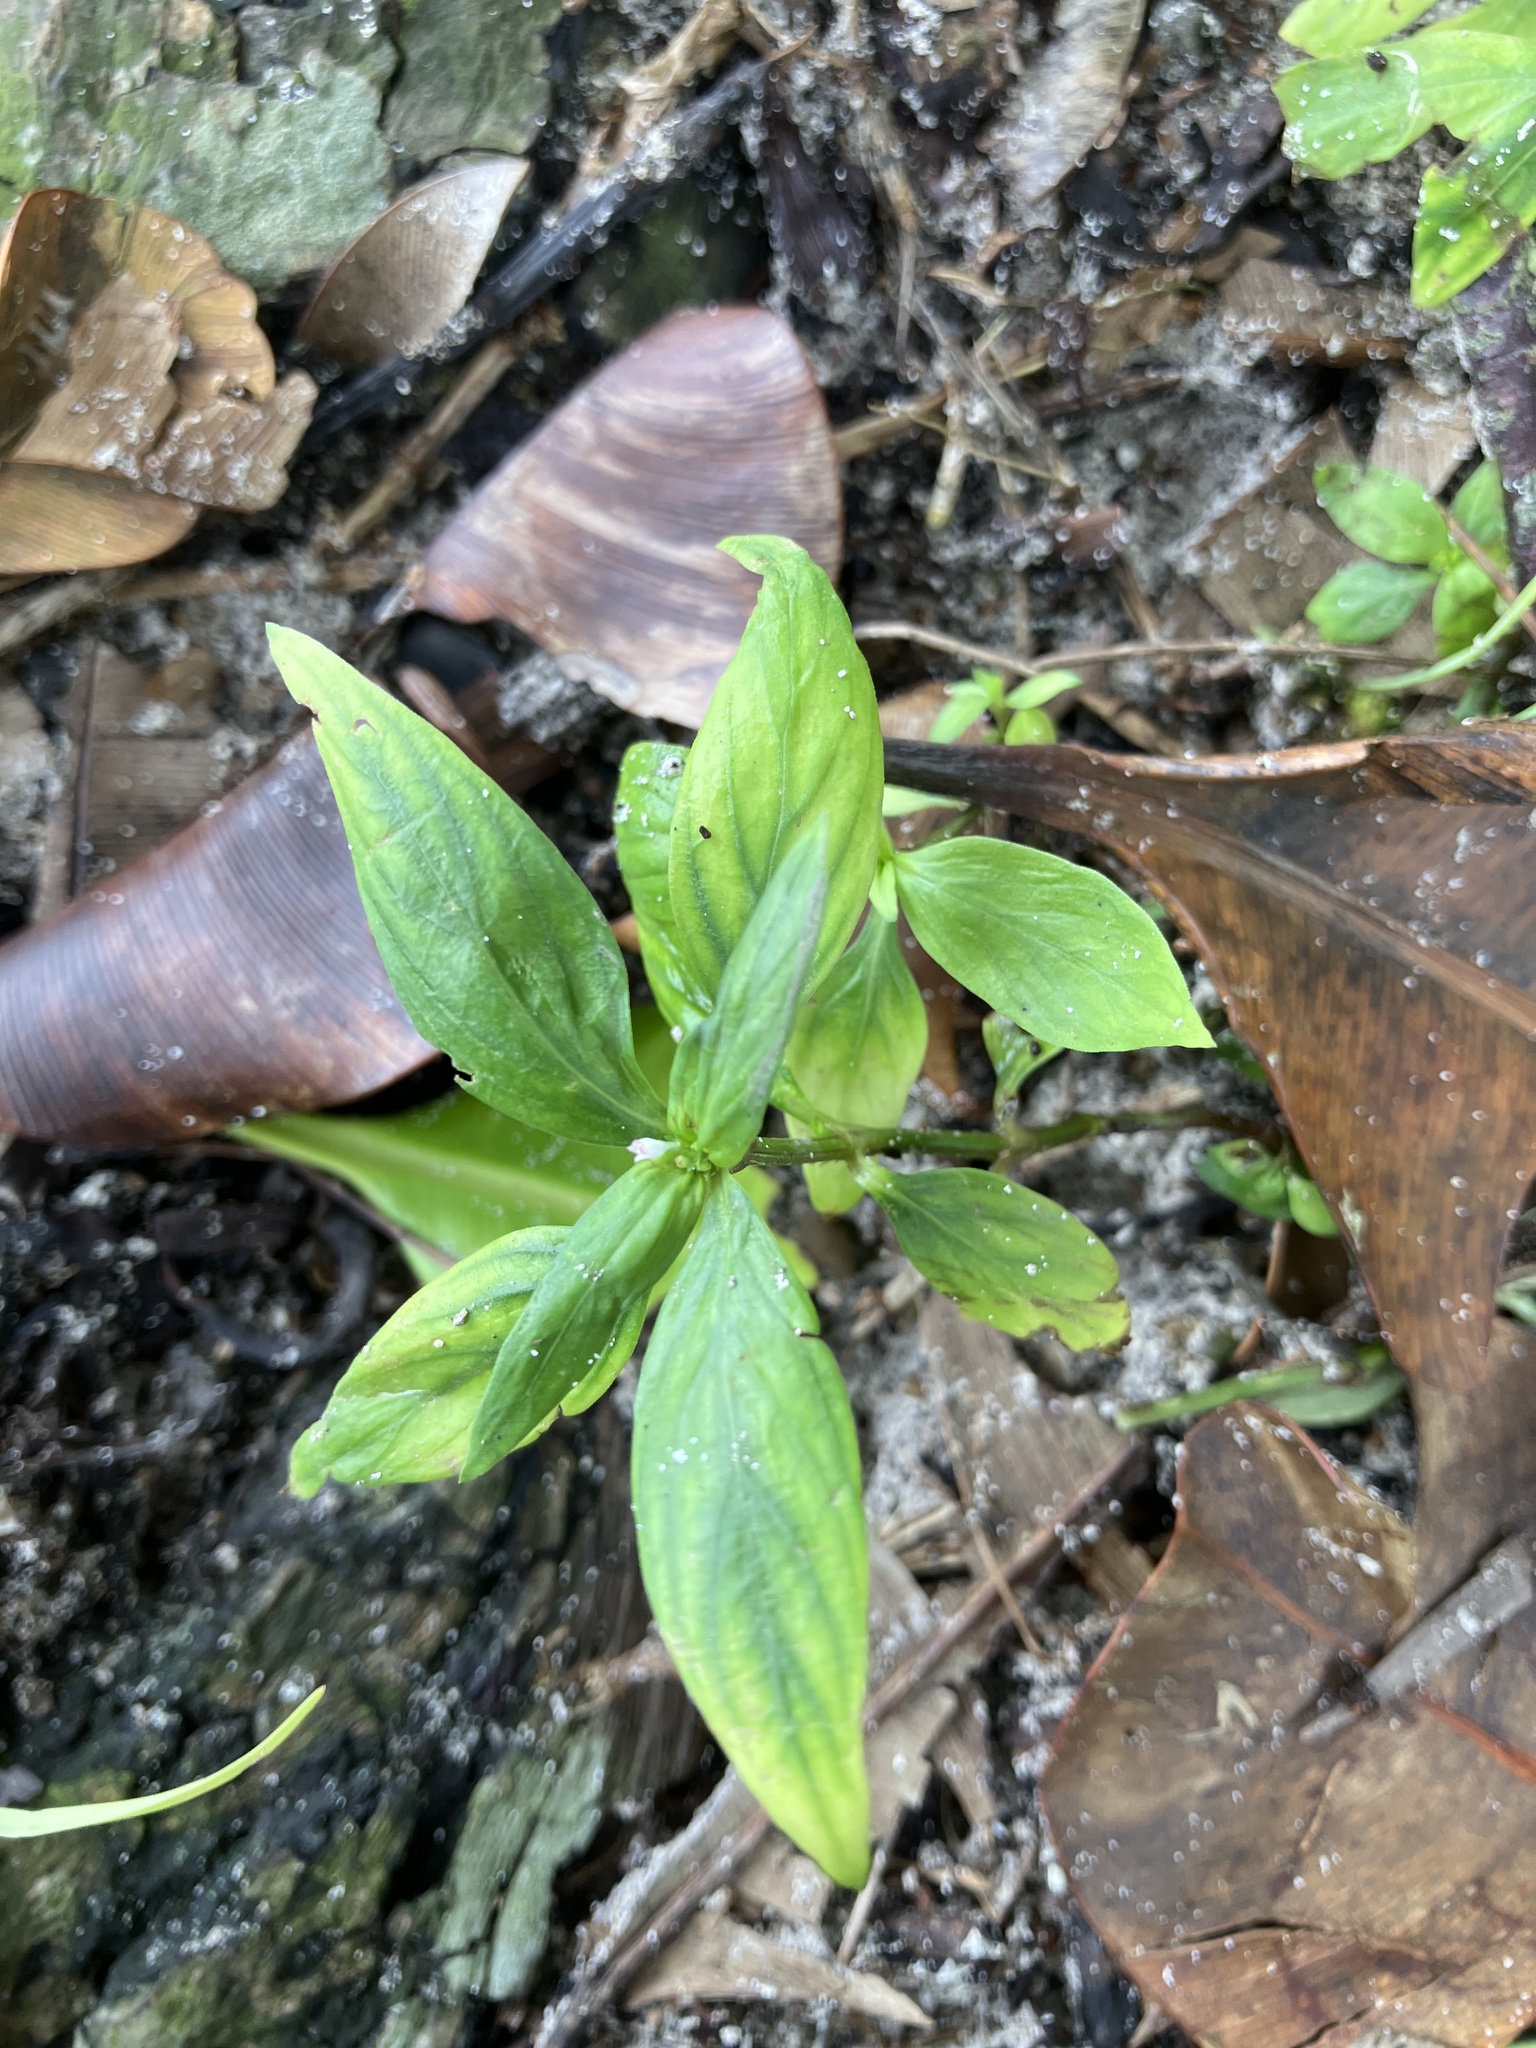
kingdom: Plantae
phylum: Tracheophyta
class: Magnoliopsida
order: Gentianales
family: Rubiaceae
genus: Spermacoce
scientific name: Spermacoce remota
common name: Woodland false buttonweed
